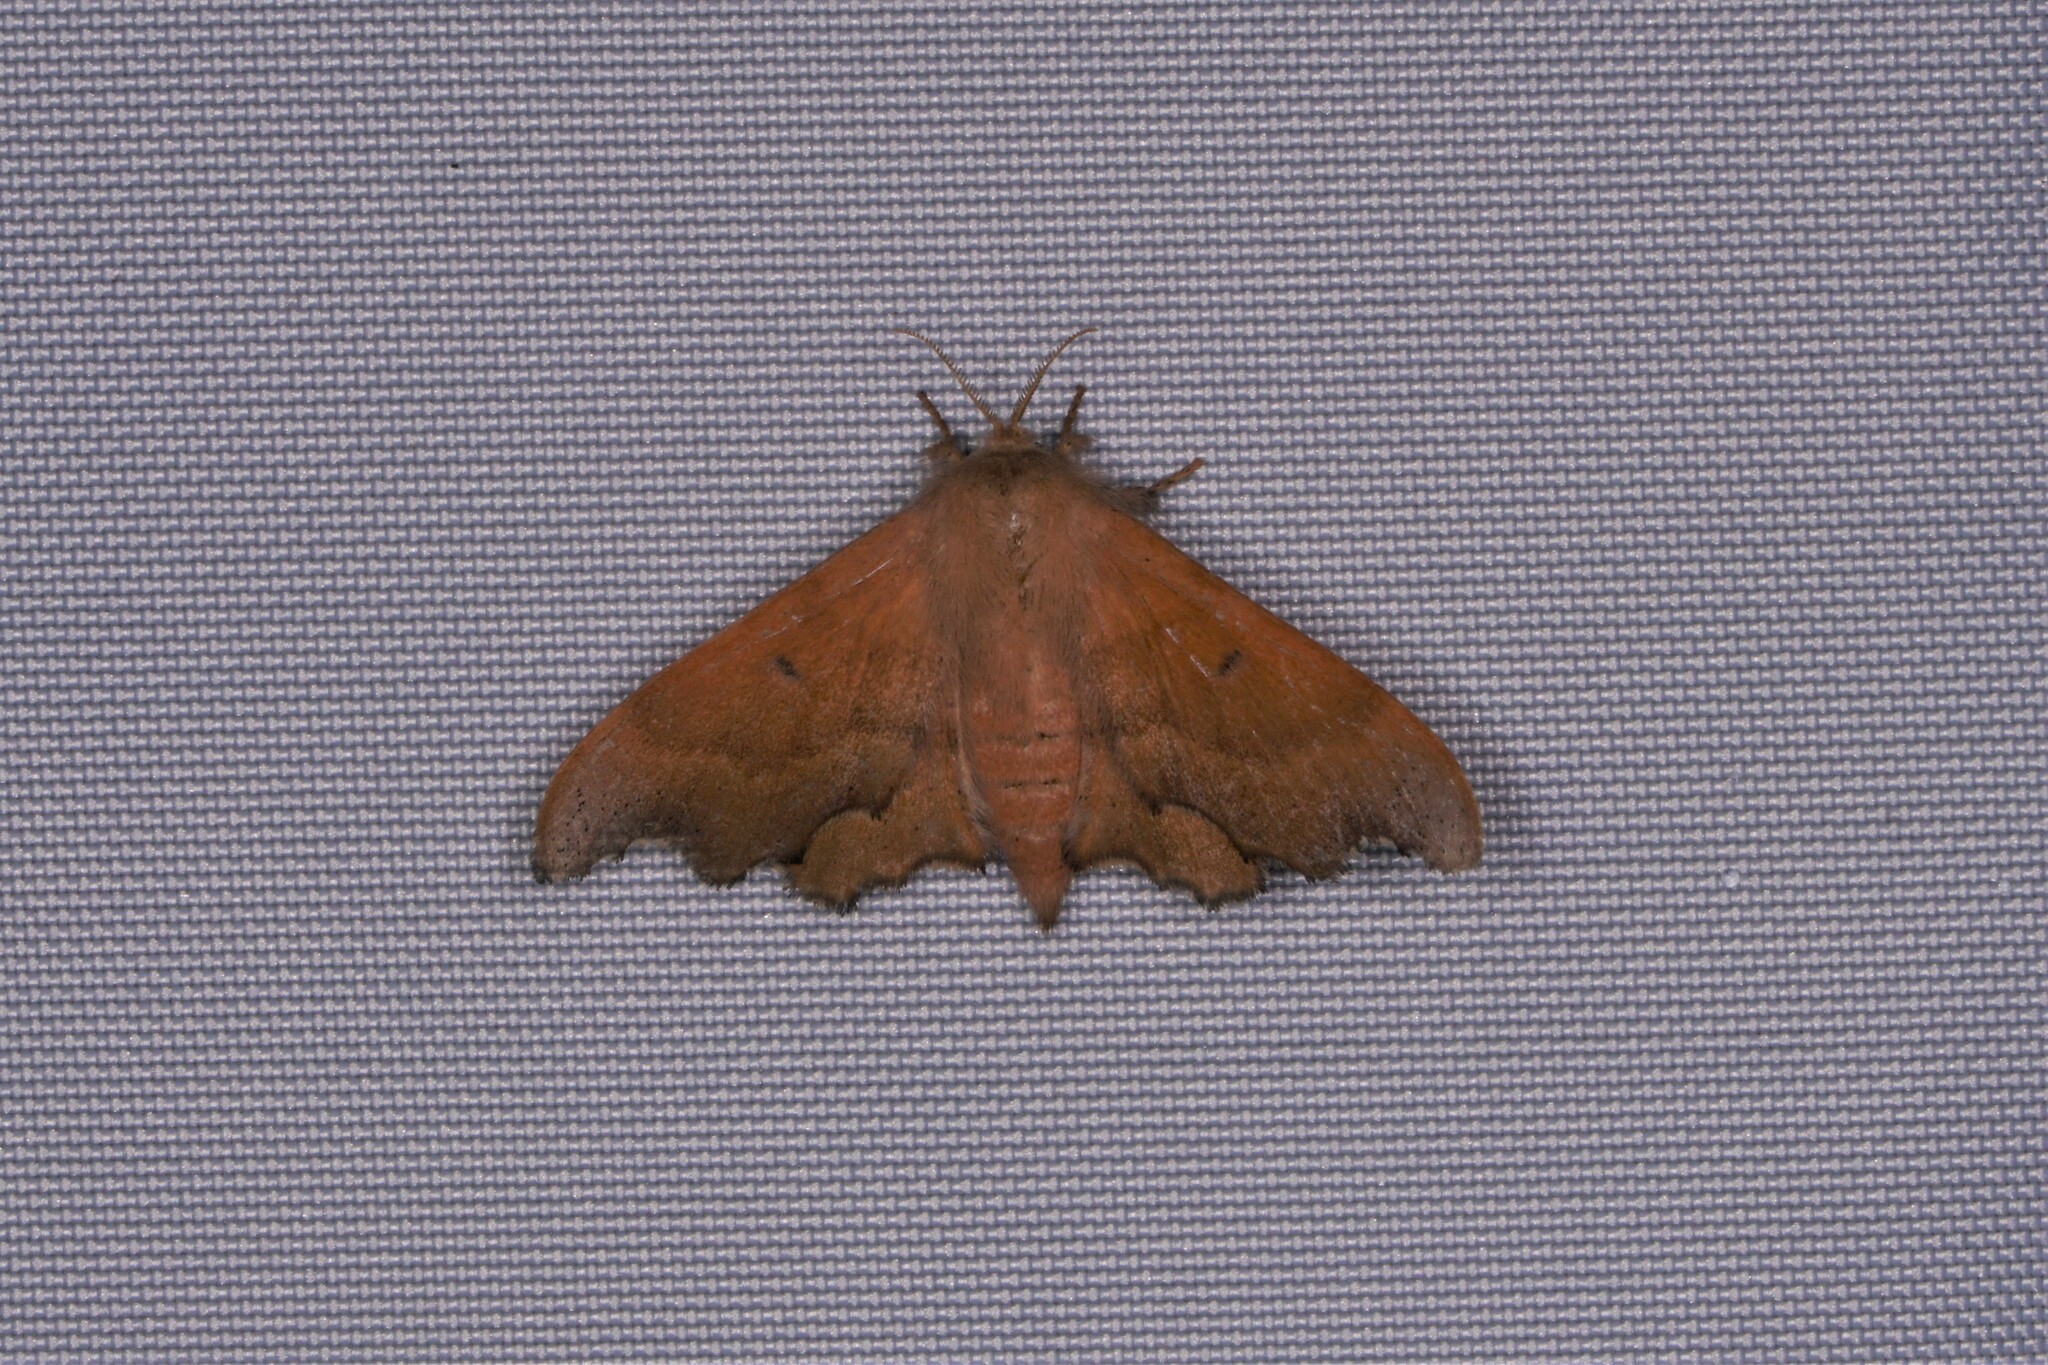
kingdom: Animalia
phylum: Arthropoda
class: Insecta
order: Lepidoptera
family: Mimallonidae
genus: Lacosoma
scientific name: Lacosoma chiridota
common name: Scalloped sack-bearer moth
